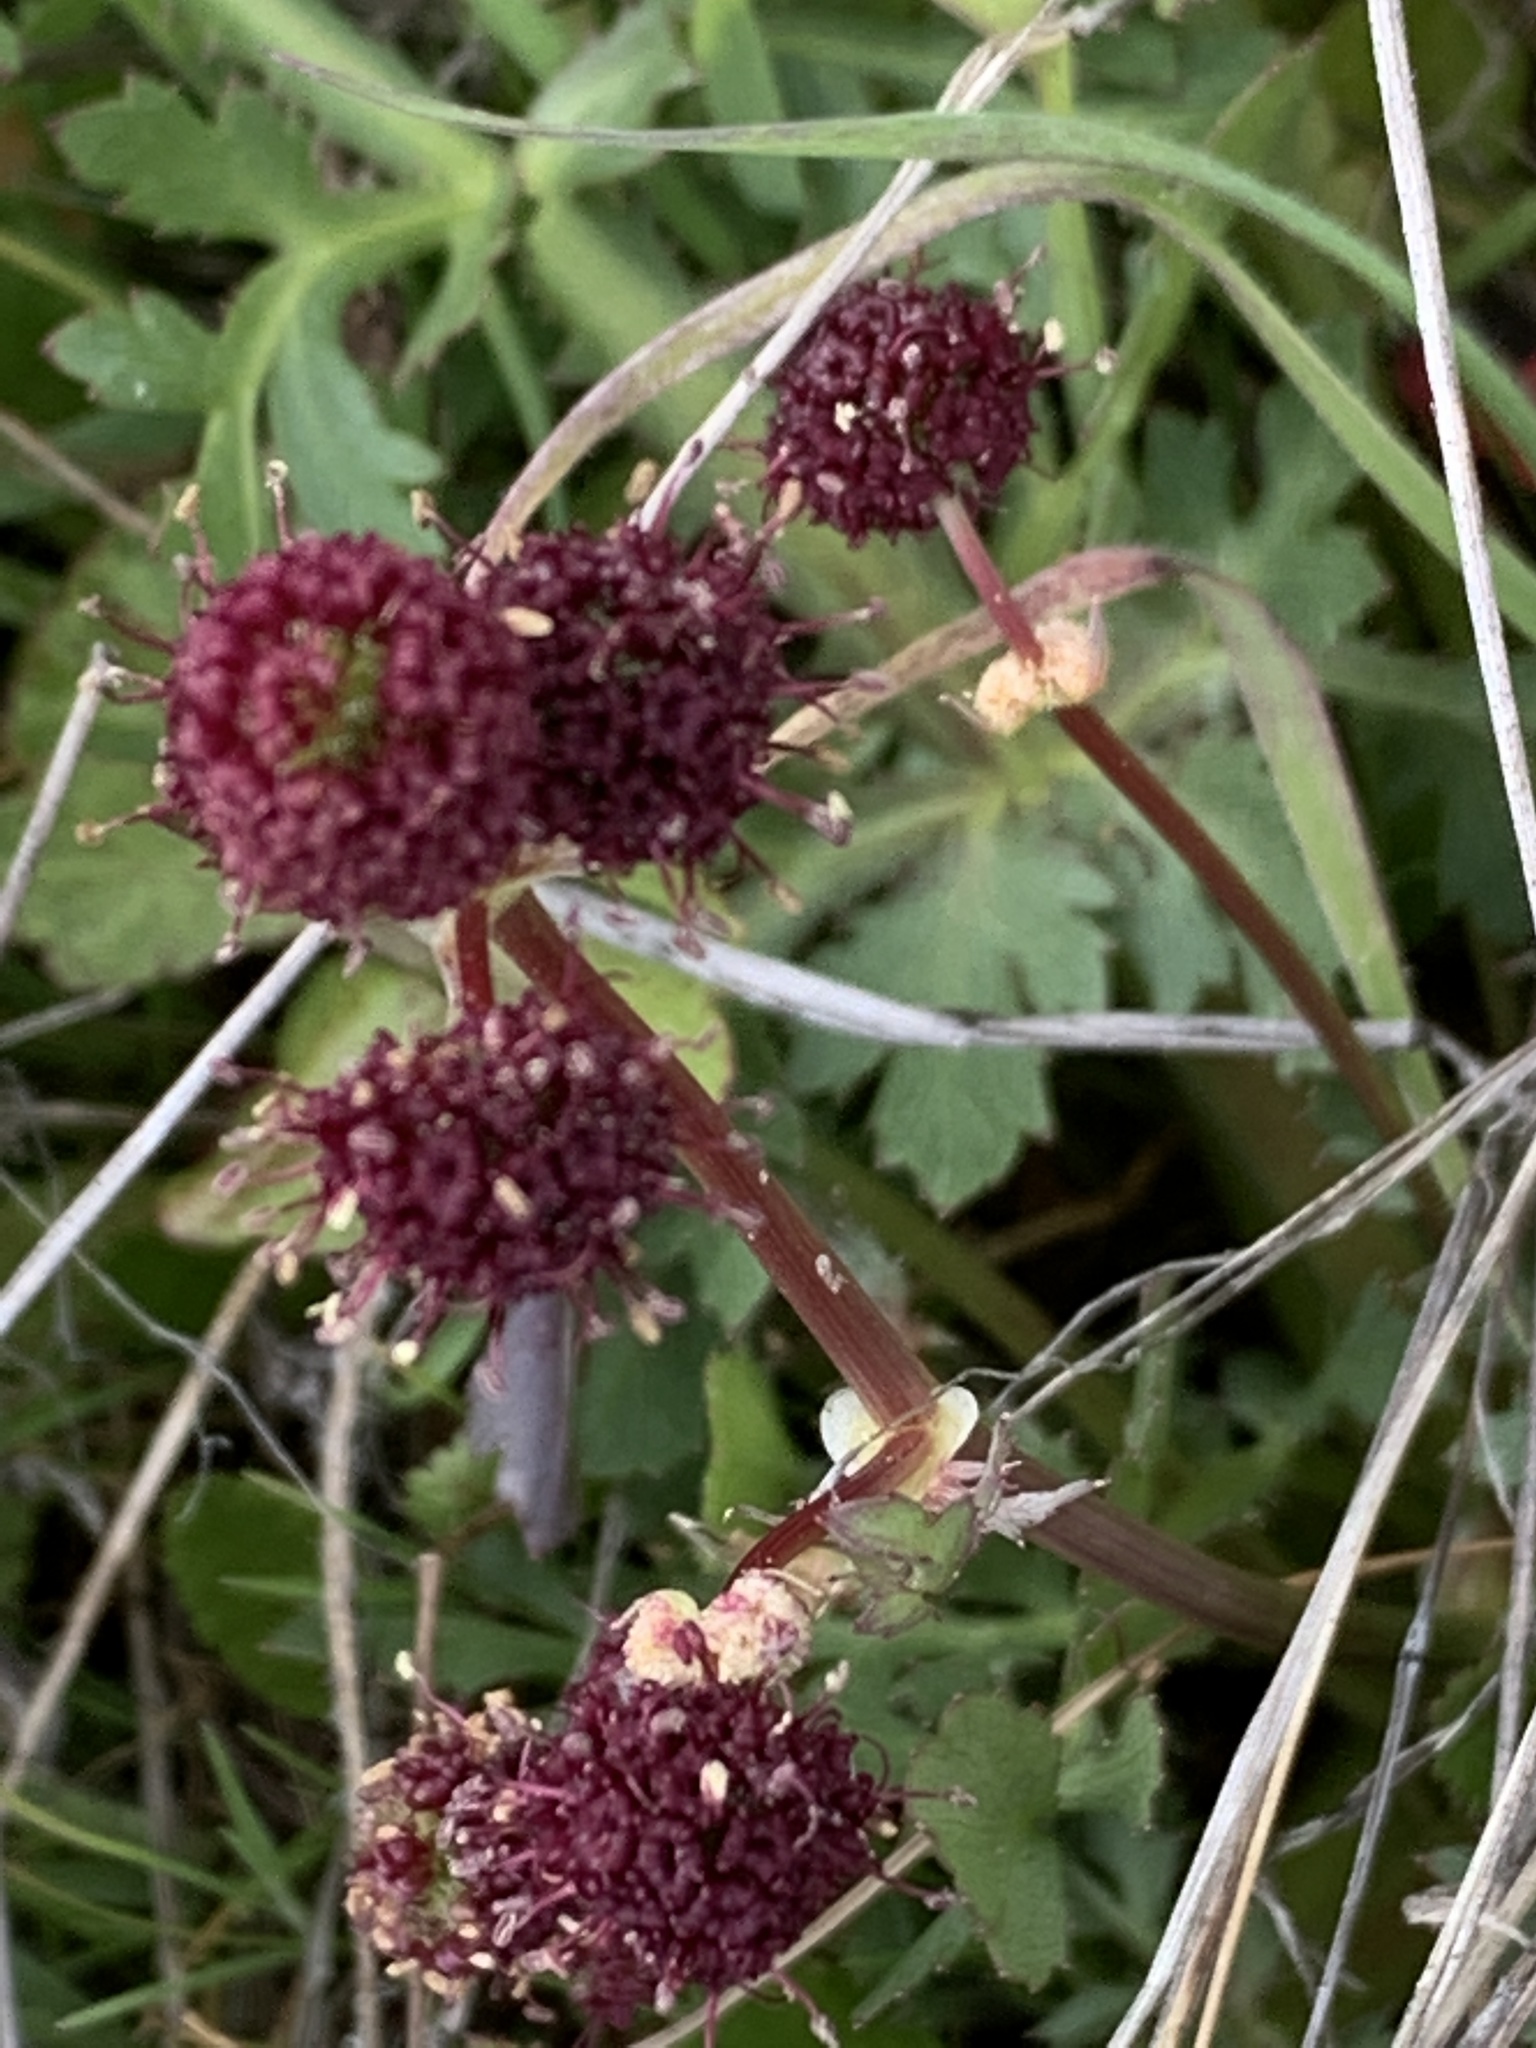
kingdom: Plantae
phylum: Tracheophyta
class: Magnoliopsida
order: Apiales
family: Apiaceae
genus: Sanicula
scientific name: Sanicula bipinnatifida
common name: Shoe-buttons
